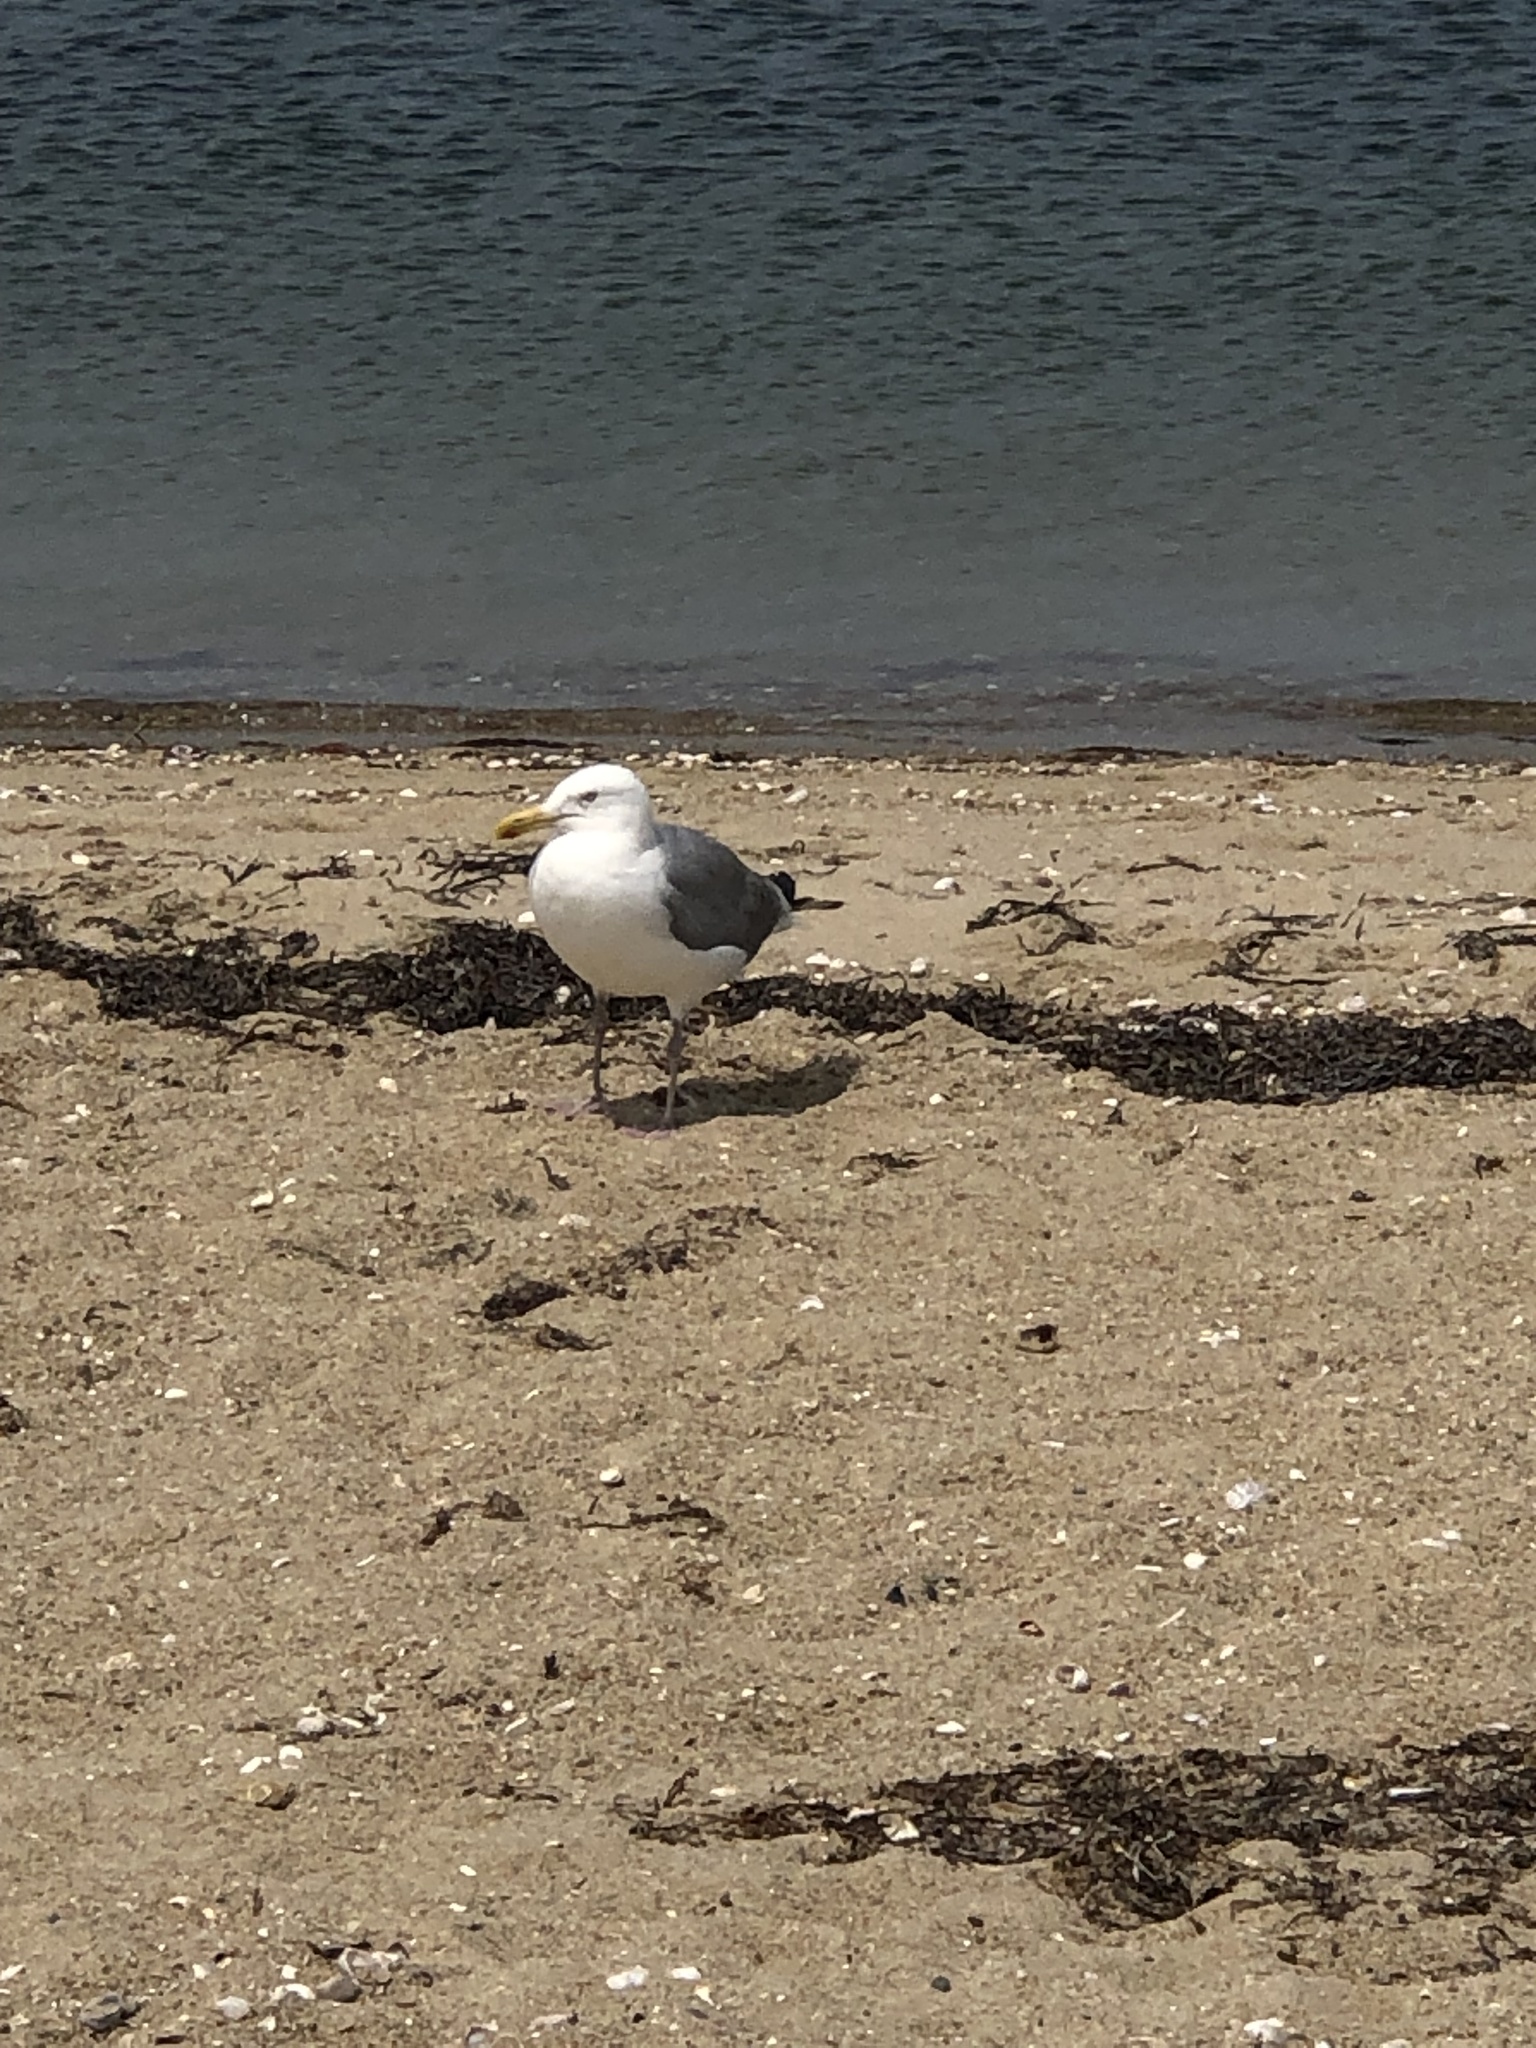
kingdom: Animalia
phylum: Chordata
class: Aves
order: Charadriiformes
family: Laridae
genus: Larus
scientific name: Larus argentatus
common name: Herring gull
